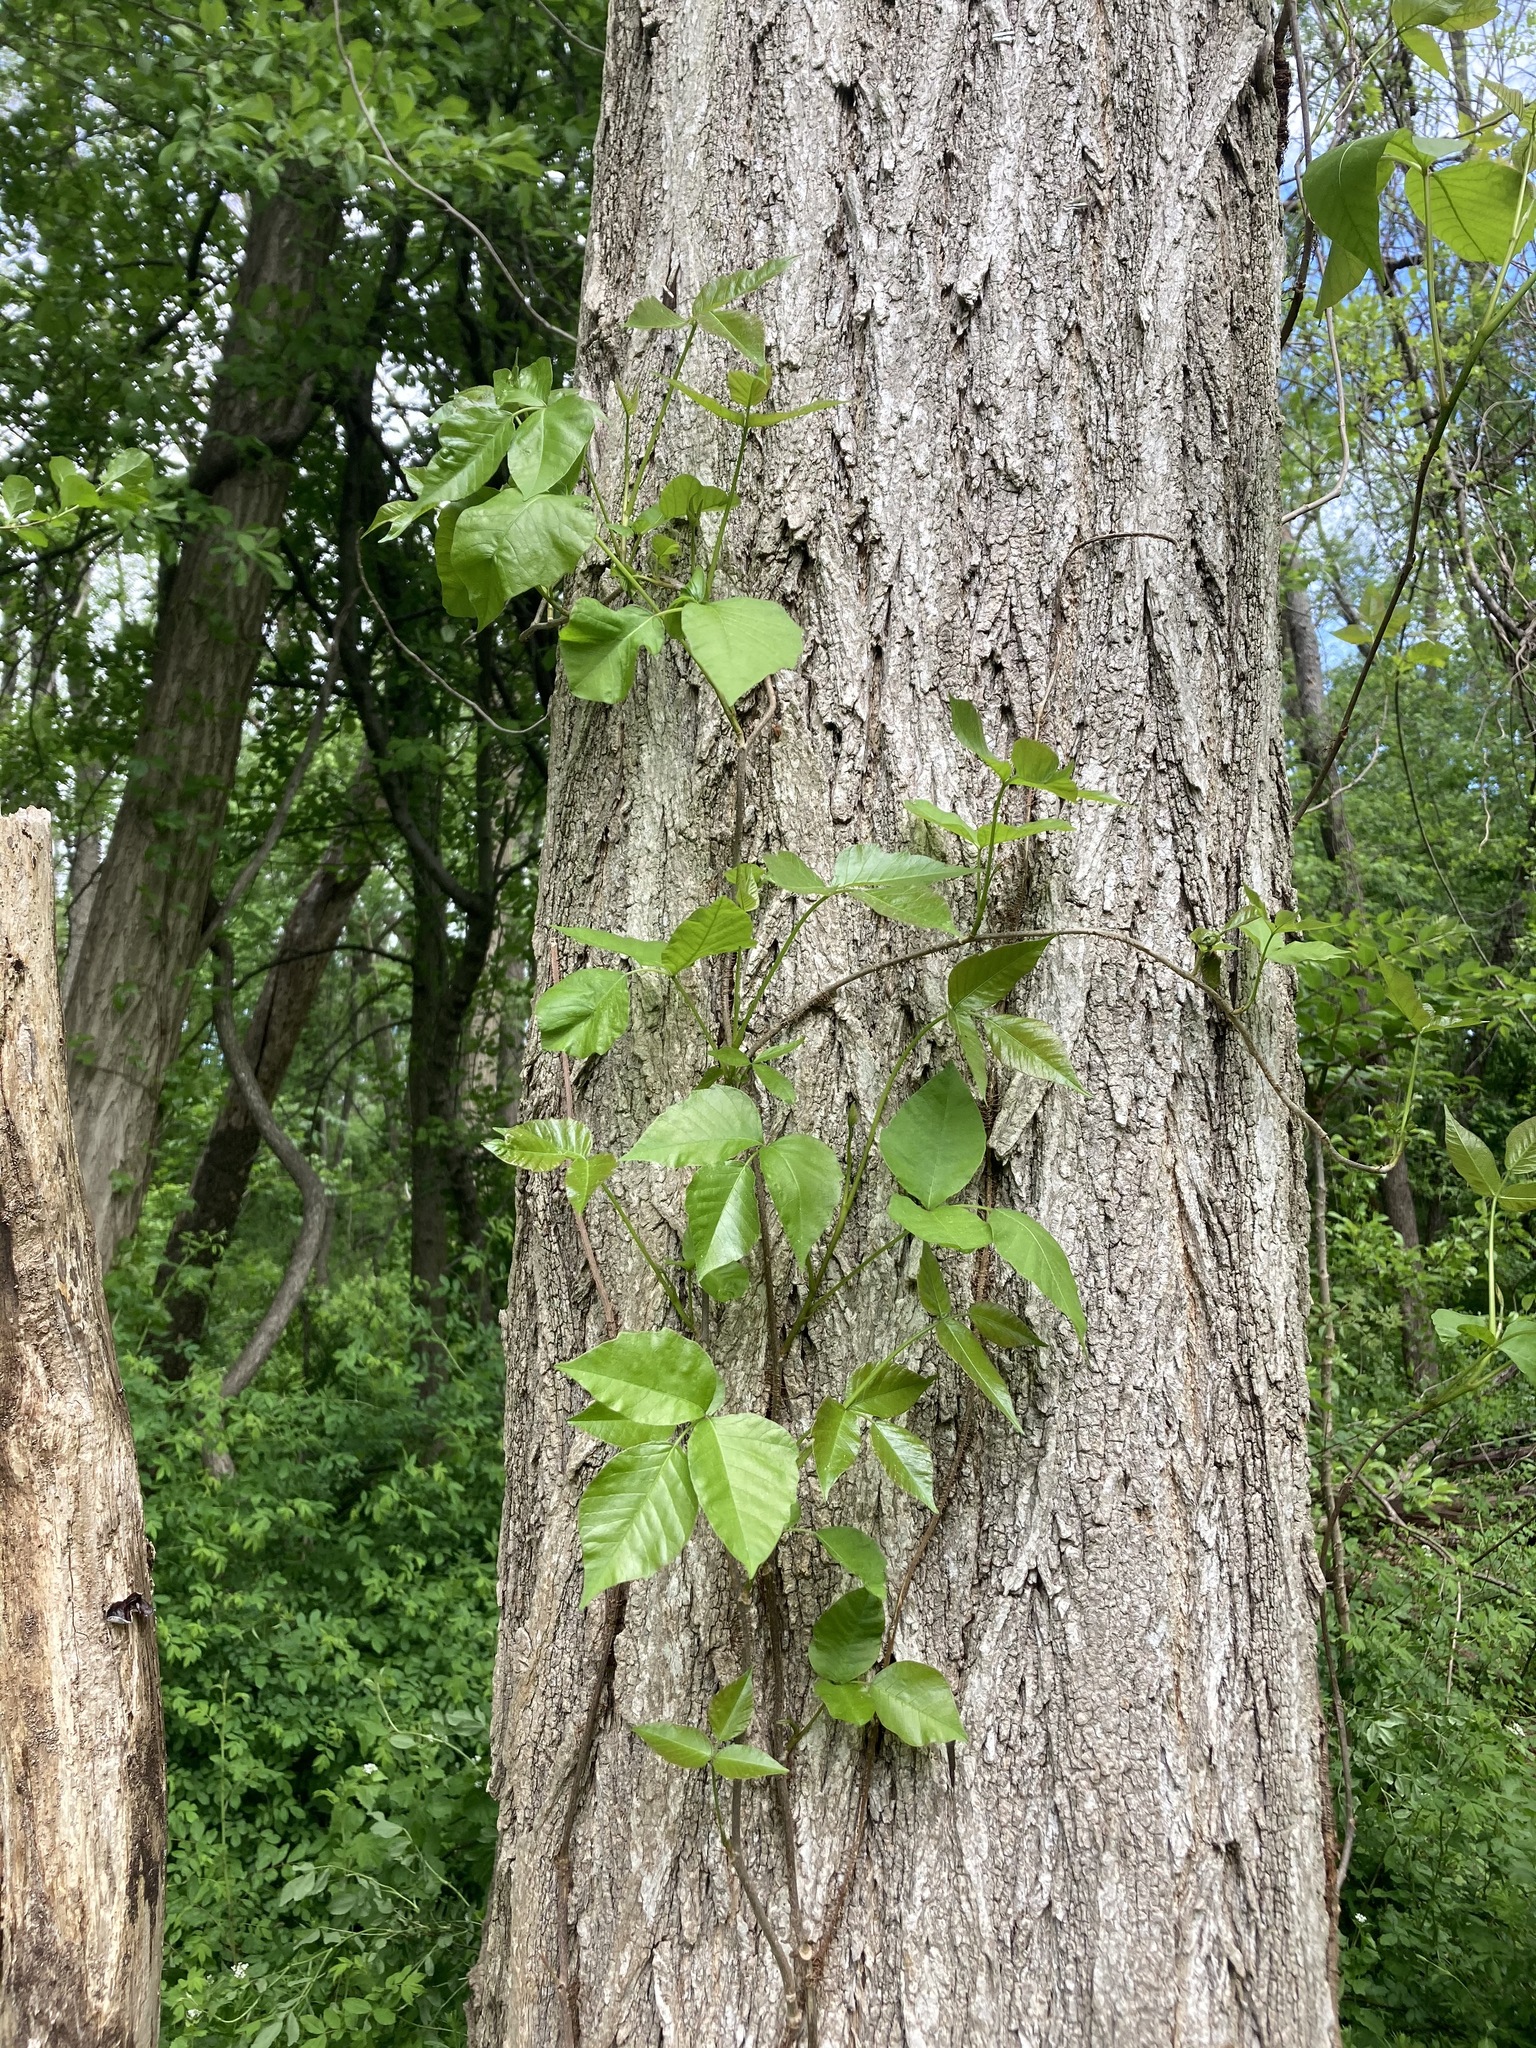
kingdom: Plantae
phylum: Tracheophyta
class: Magnoliopsida
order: Sapindales
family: Anacardiaceae
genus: Toxicodendron
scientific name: Toxicodendron radicans
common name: Poison ivy
